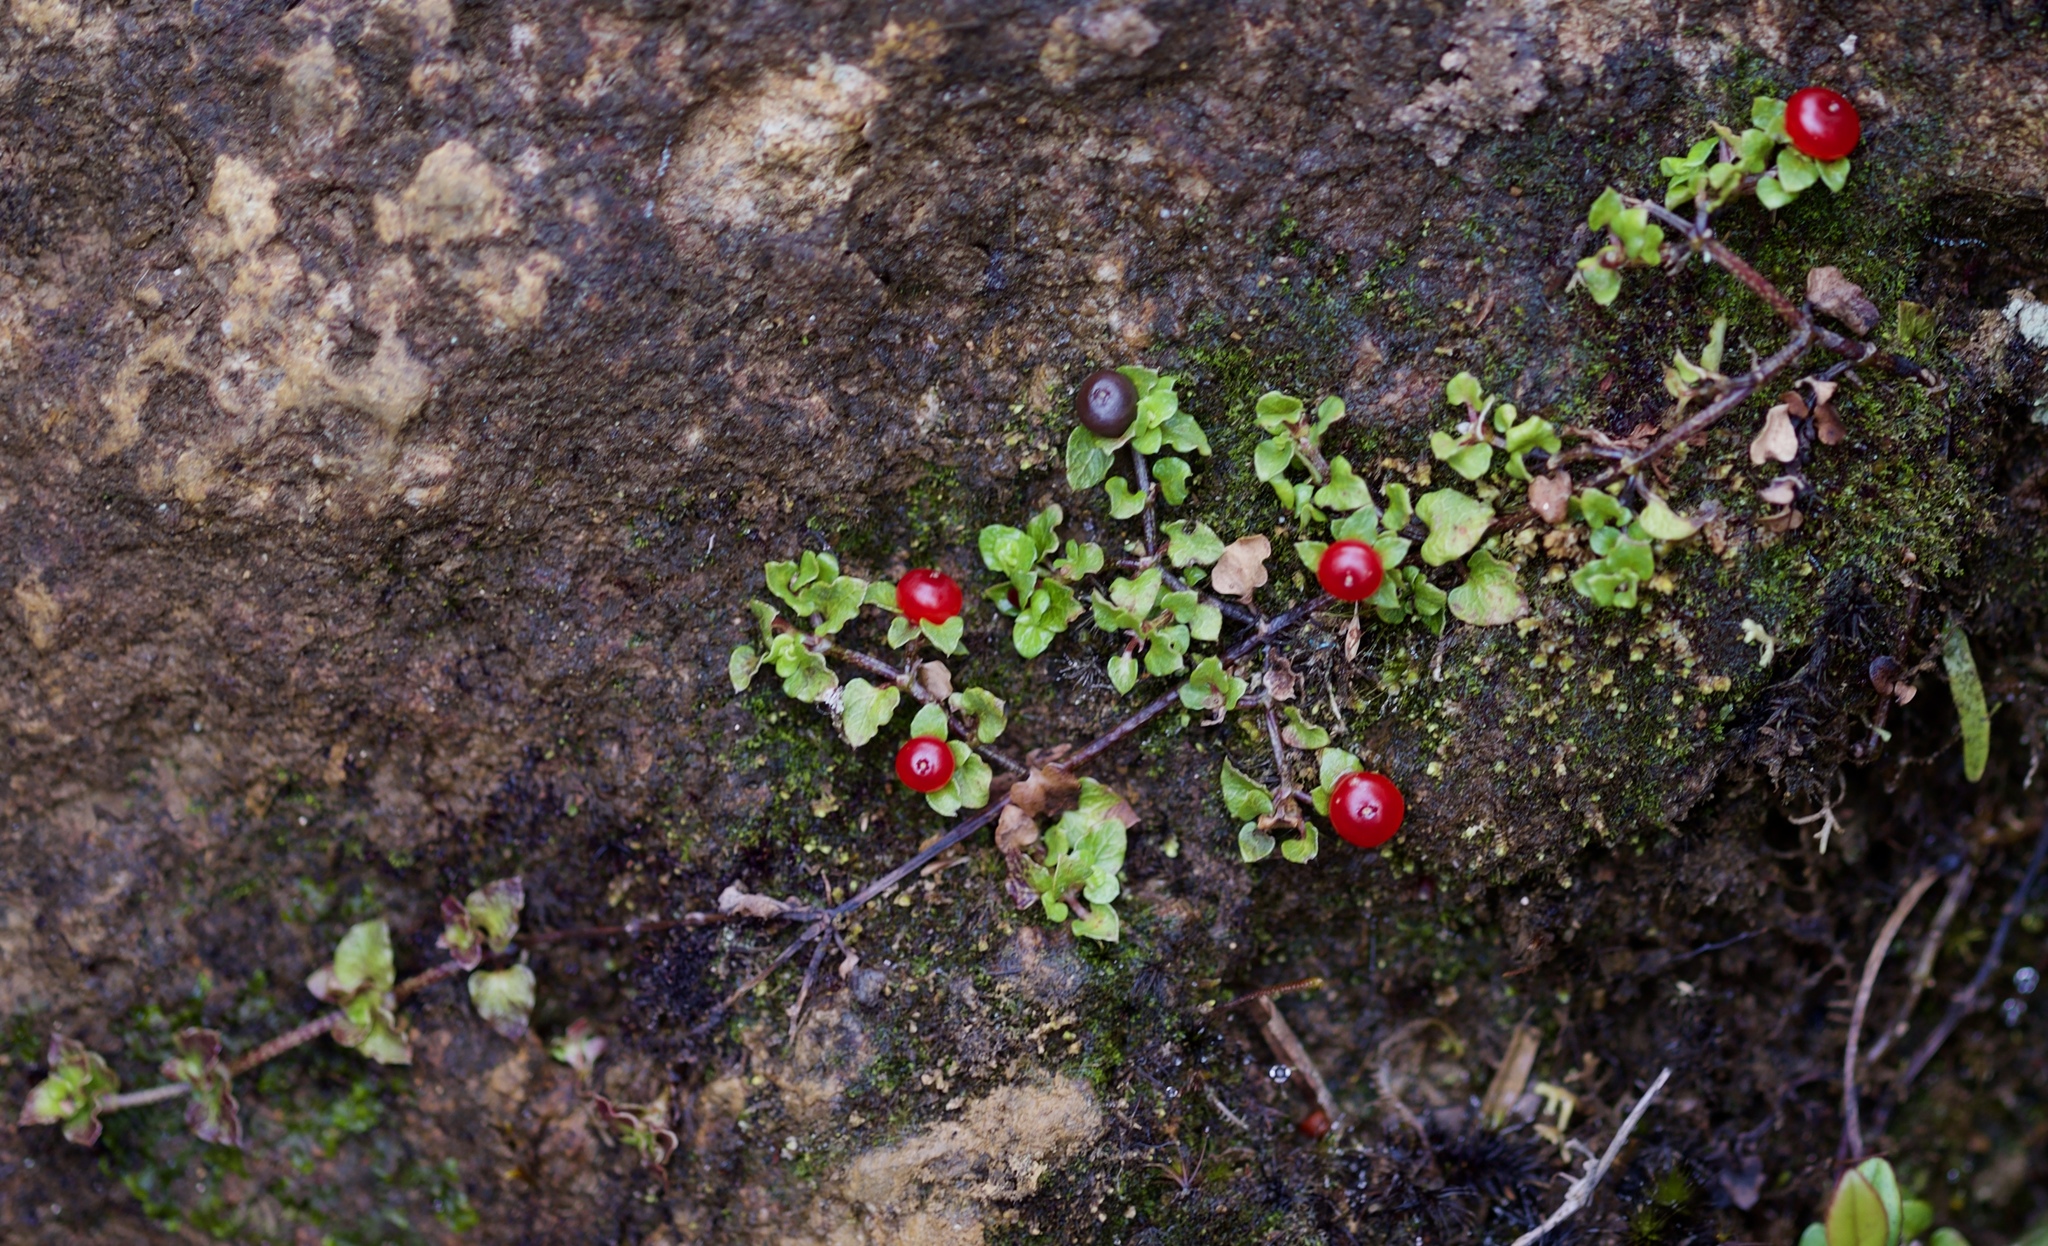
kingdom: Plantae
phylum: Tracheophyta
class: Magnoliopsida
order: Gentianales
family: Rubiaceae
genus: Nertera
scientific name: Nertera granadensis
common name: Beadplant
